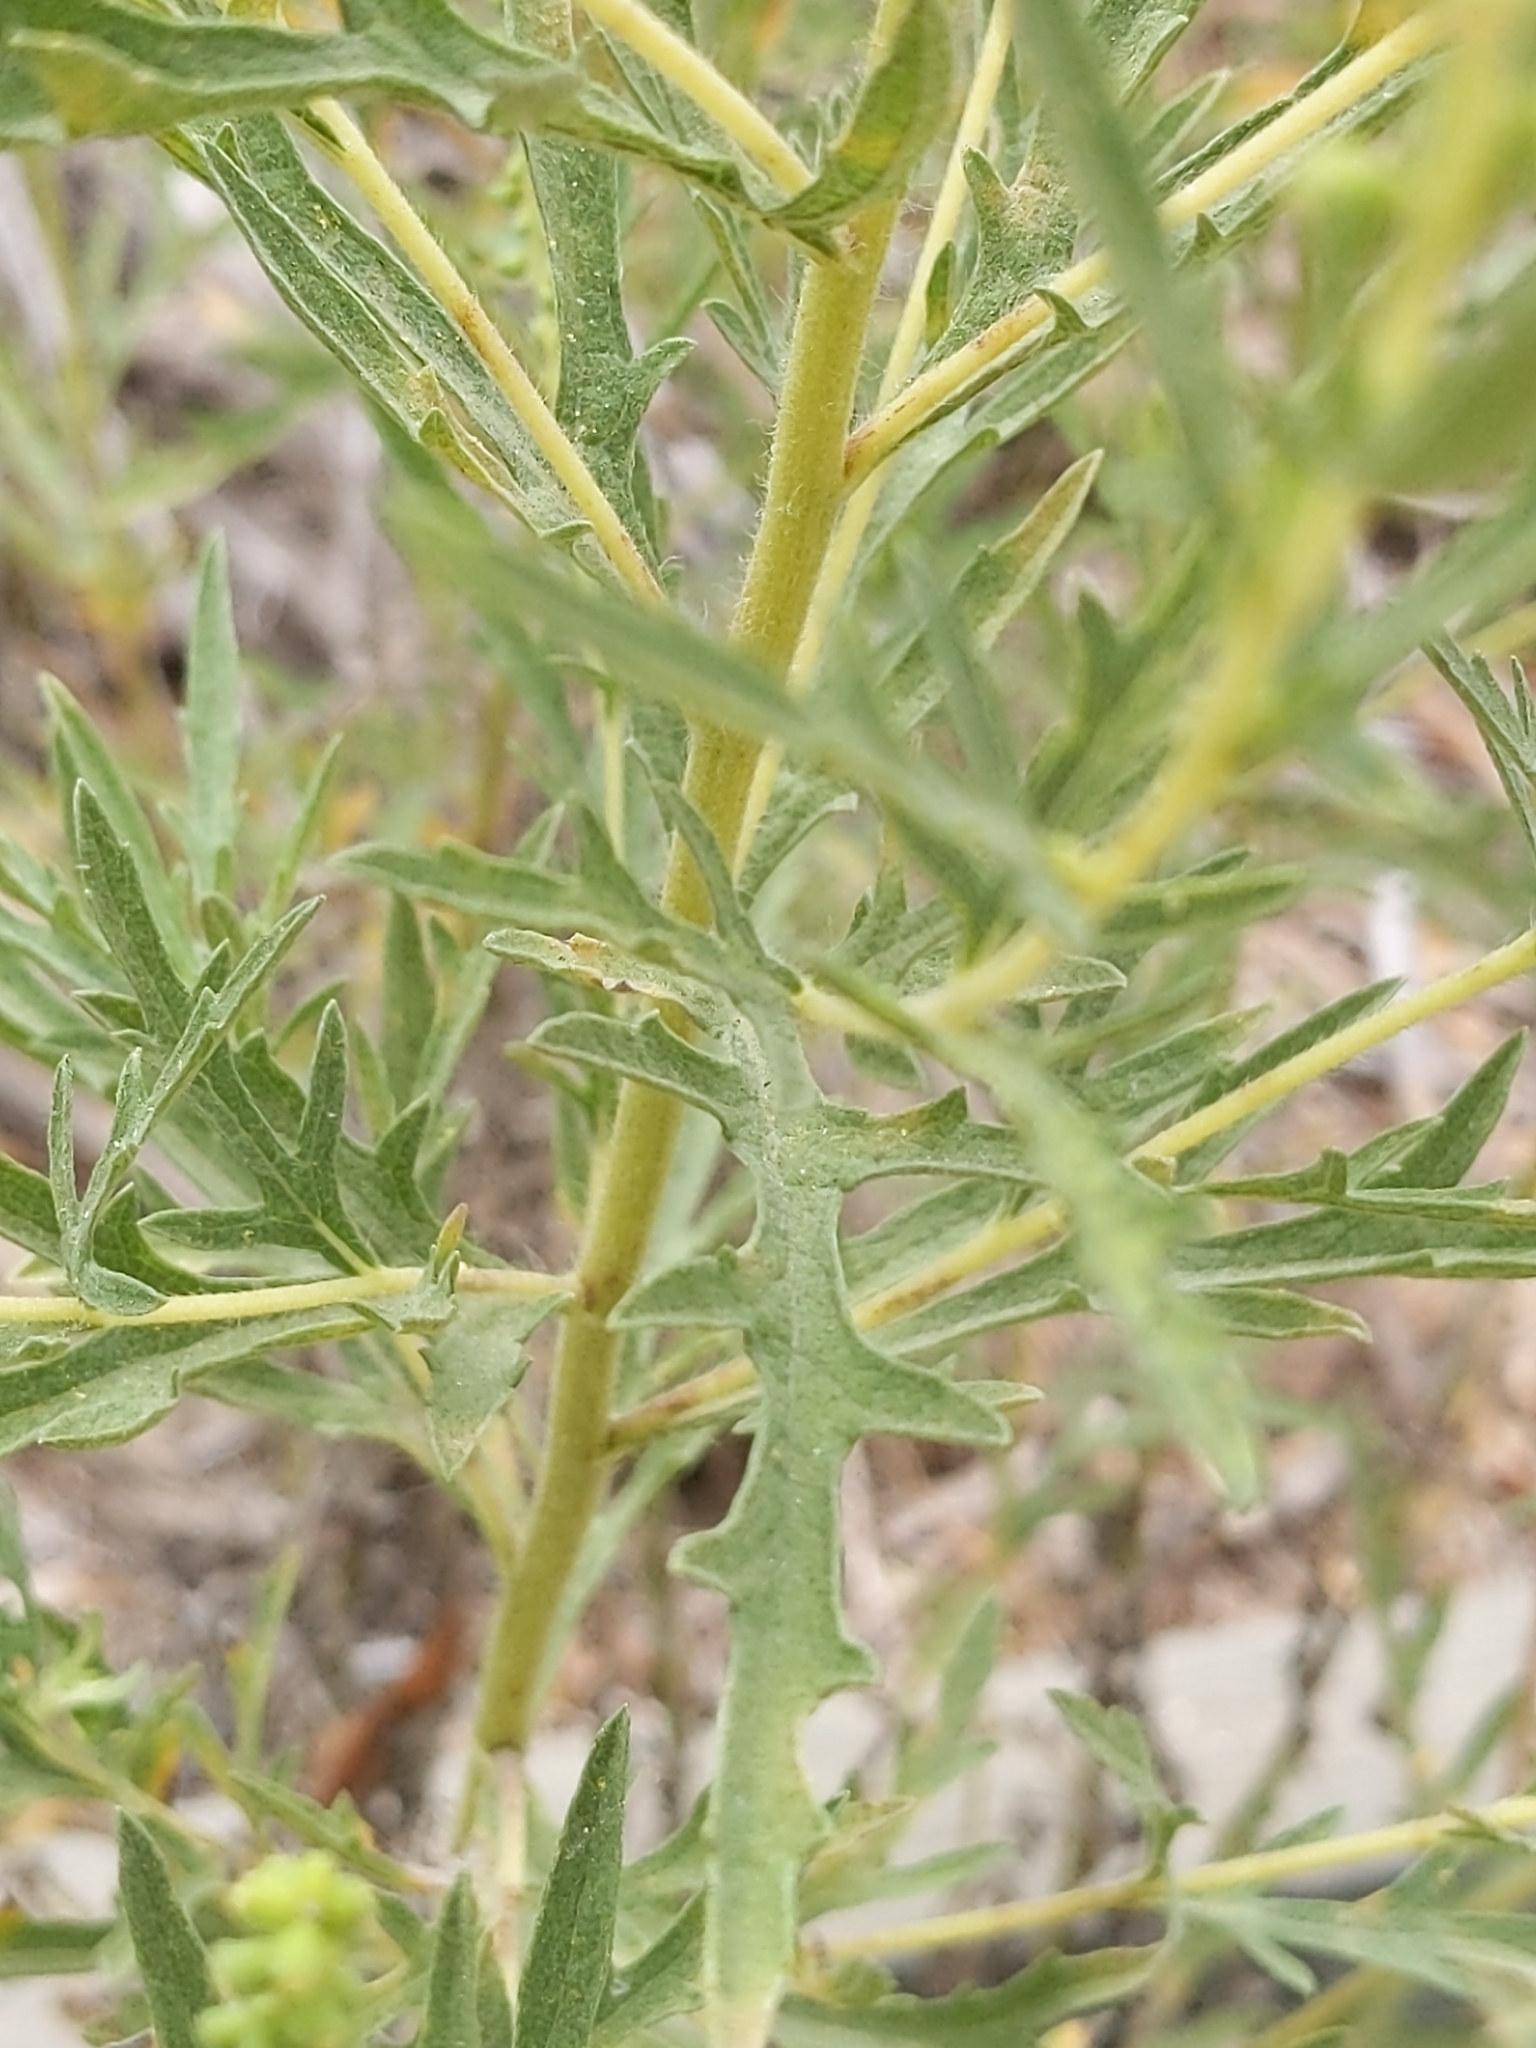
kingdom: Plantae
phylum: Tracheophyta
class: Magnoliopsida
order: Asterales
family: Asteraceae
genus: Ambrosia
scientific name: Ambrosia psilostachya
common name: Perennial ragweed
